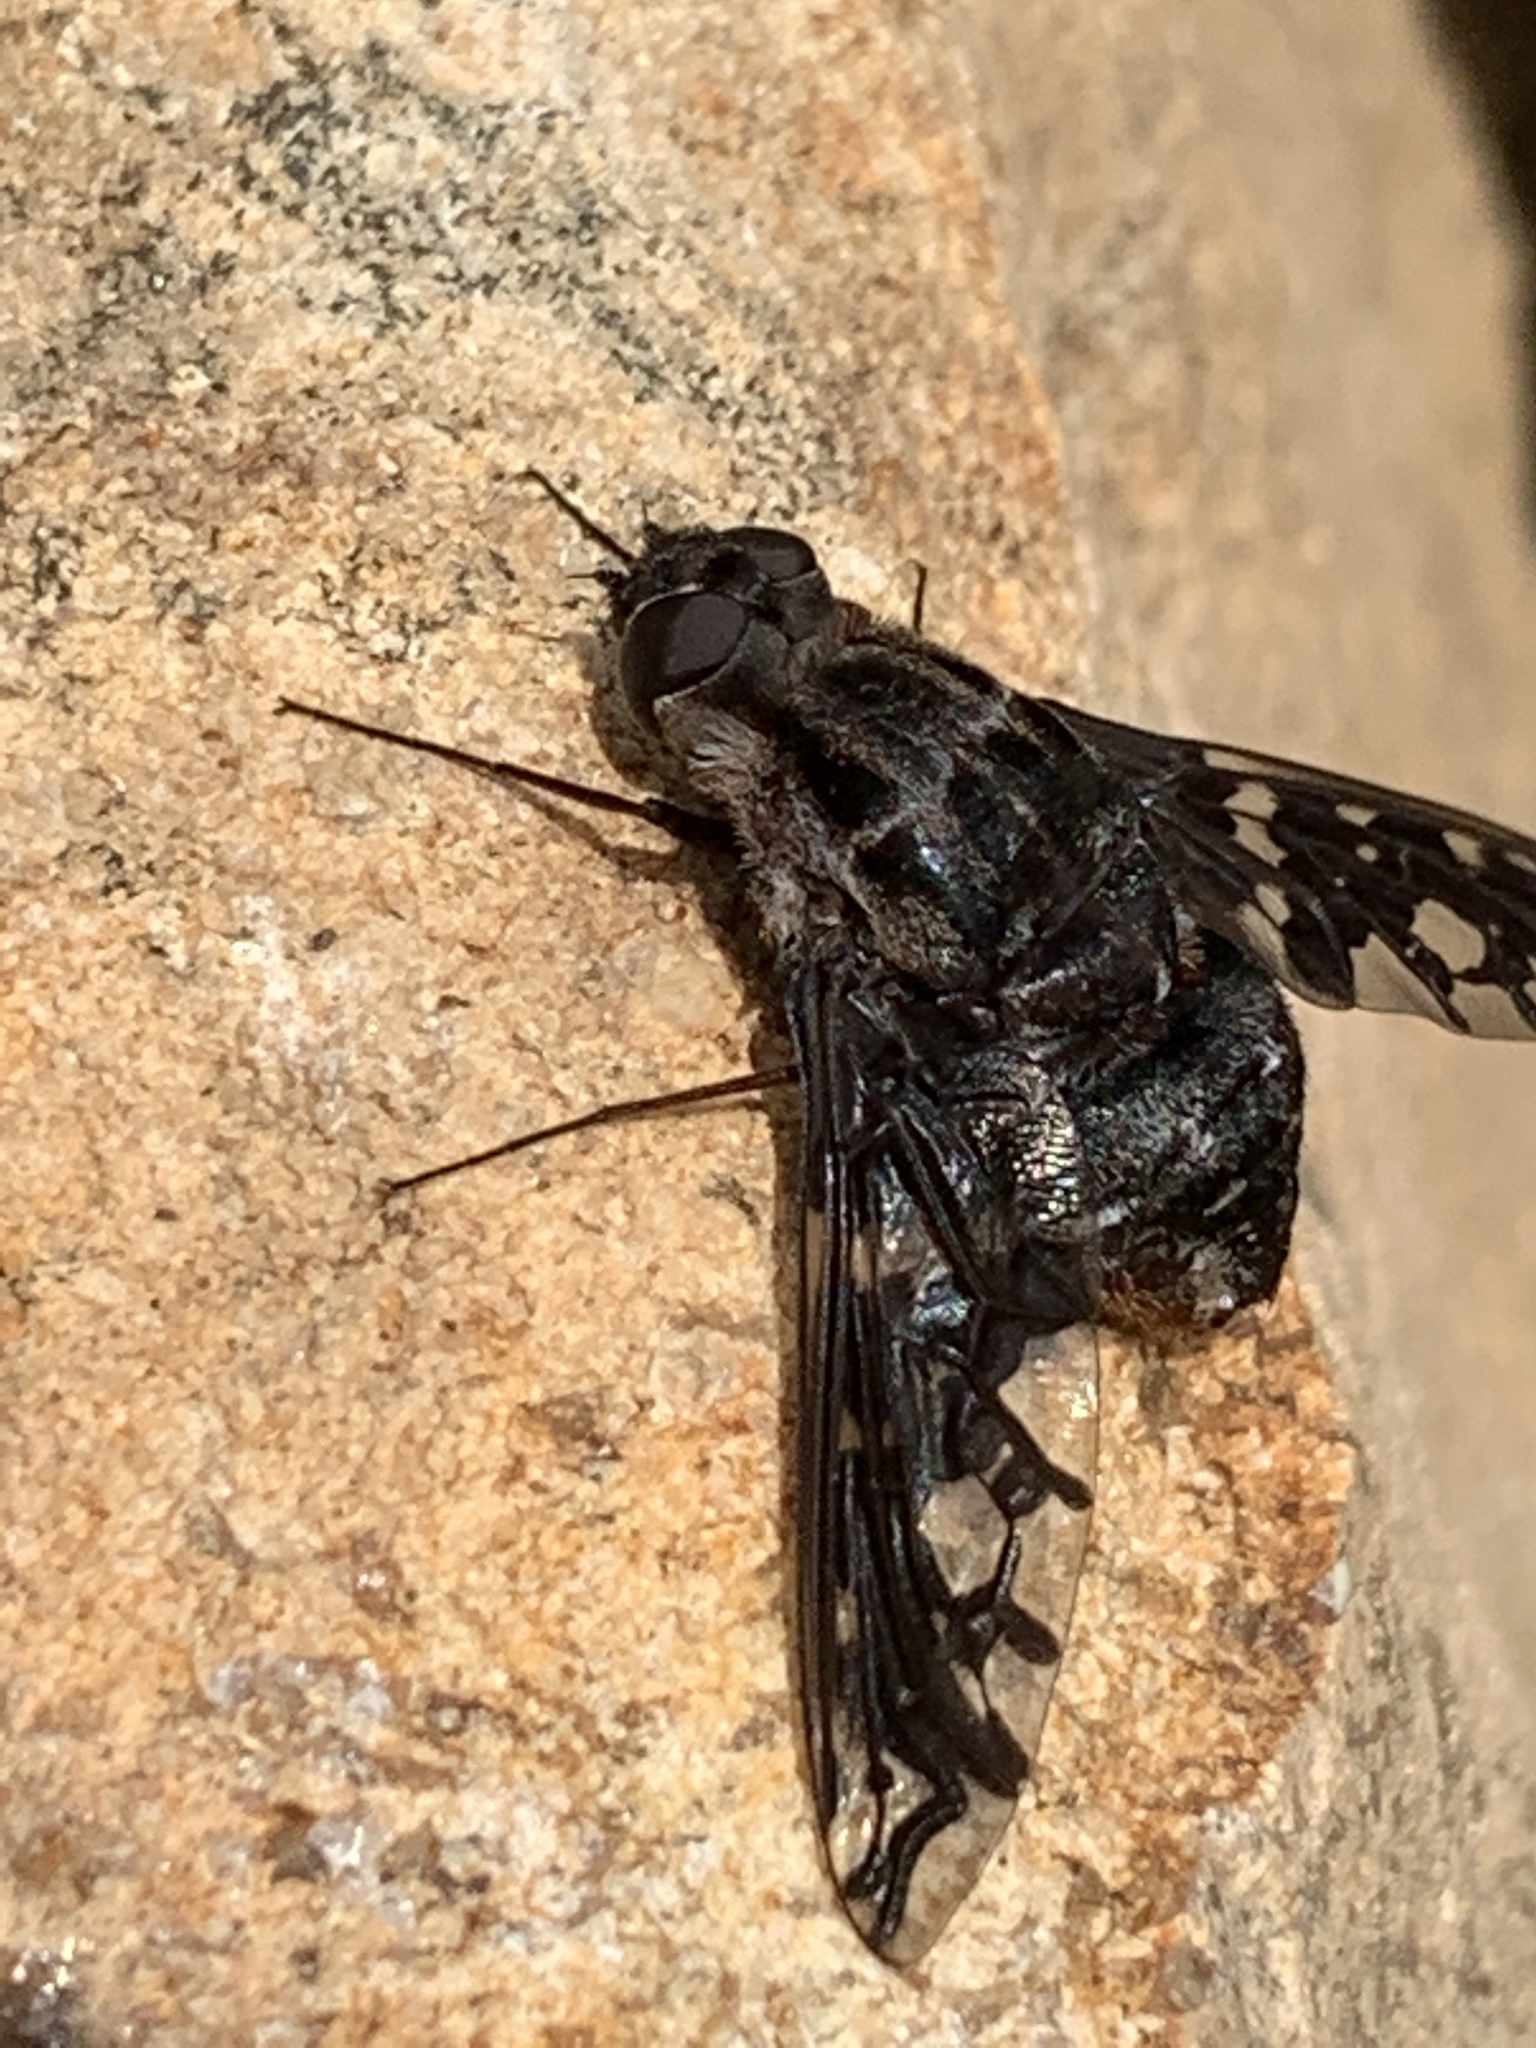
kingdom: Animalia
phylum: Arthropoda
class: Insecta
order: Diptera
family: Bombyliidae
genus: Xenox
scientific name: Xenox tigrinus
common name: Tiger bee fly
